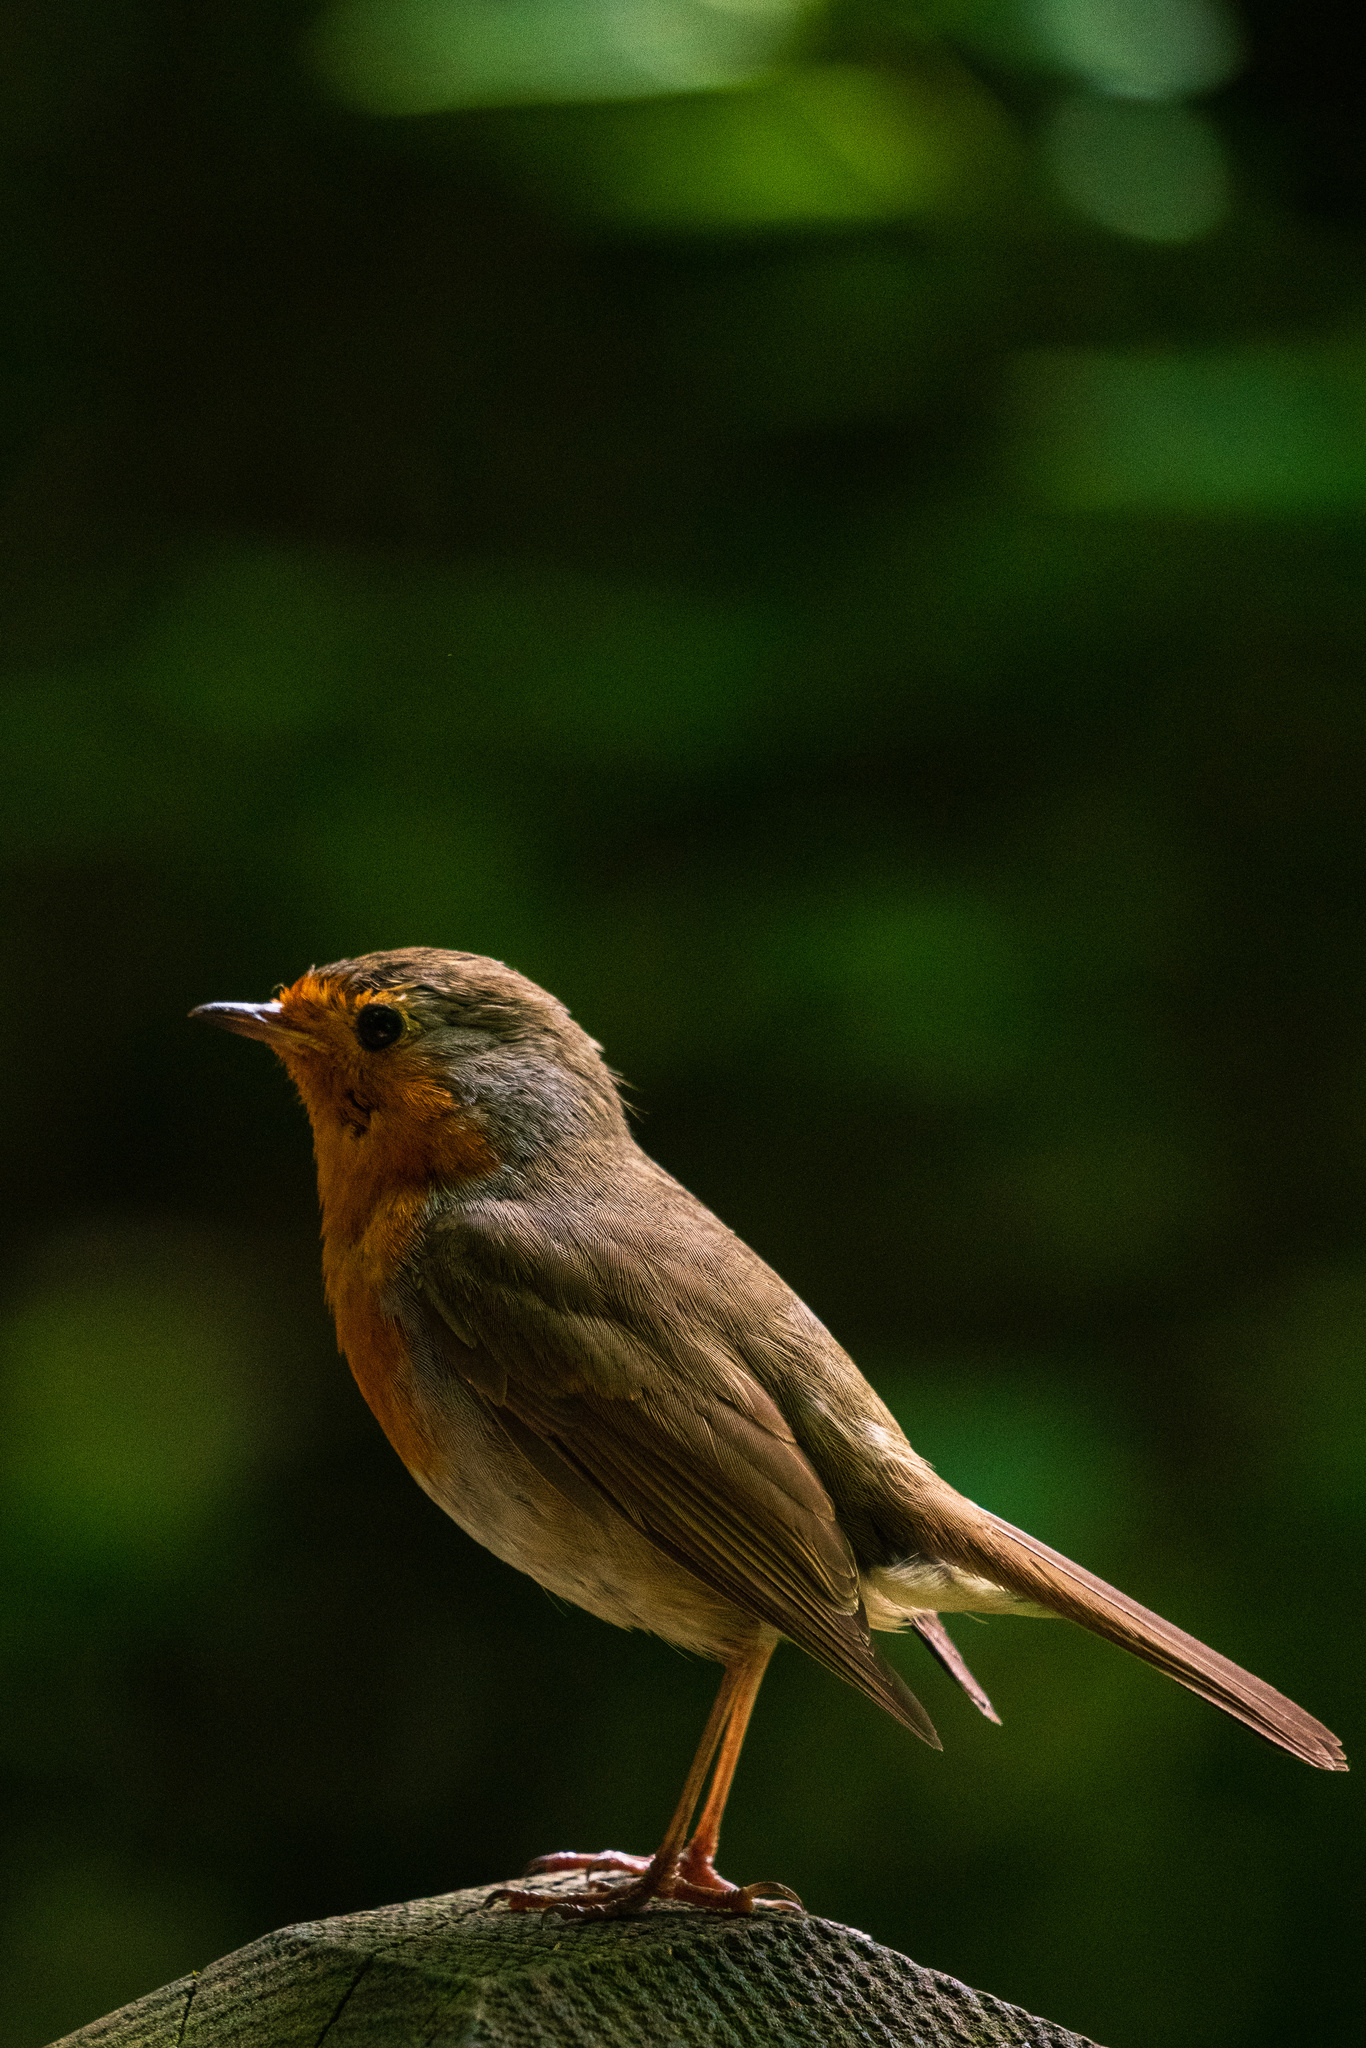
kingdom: Animalia
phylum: Chordata
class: Aves
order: Passeriformes
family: Muscicapidae
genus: Erithacus
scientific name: Erithacus rubecula
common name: European robin
